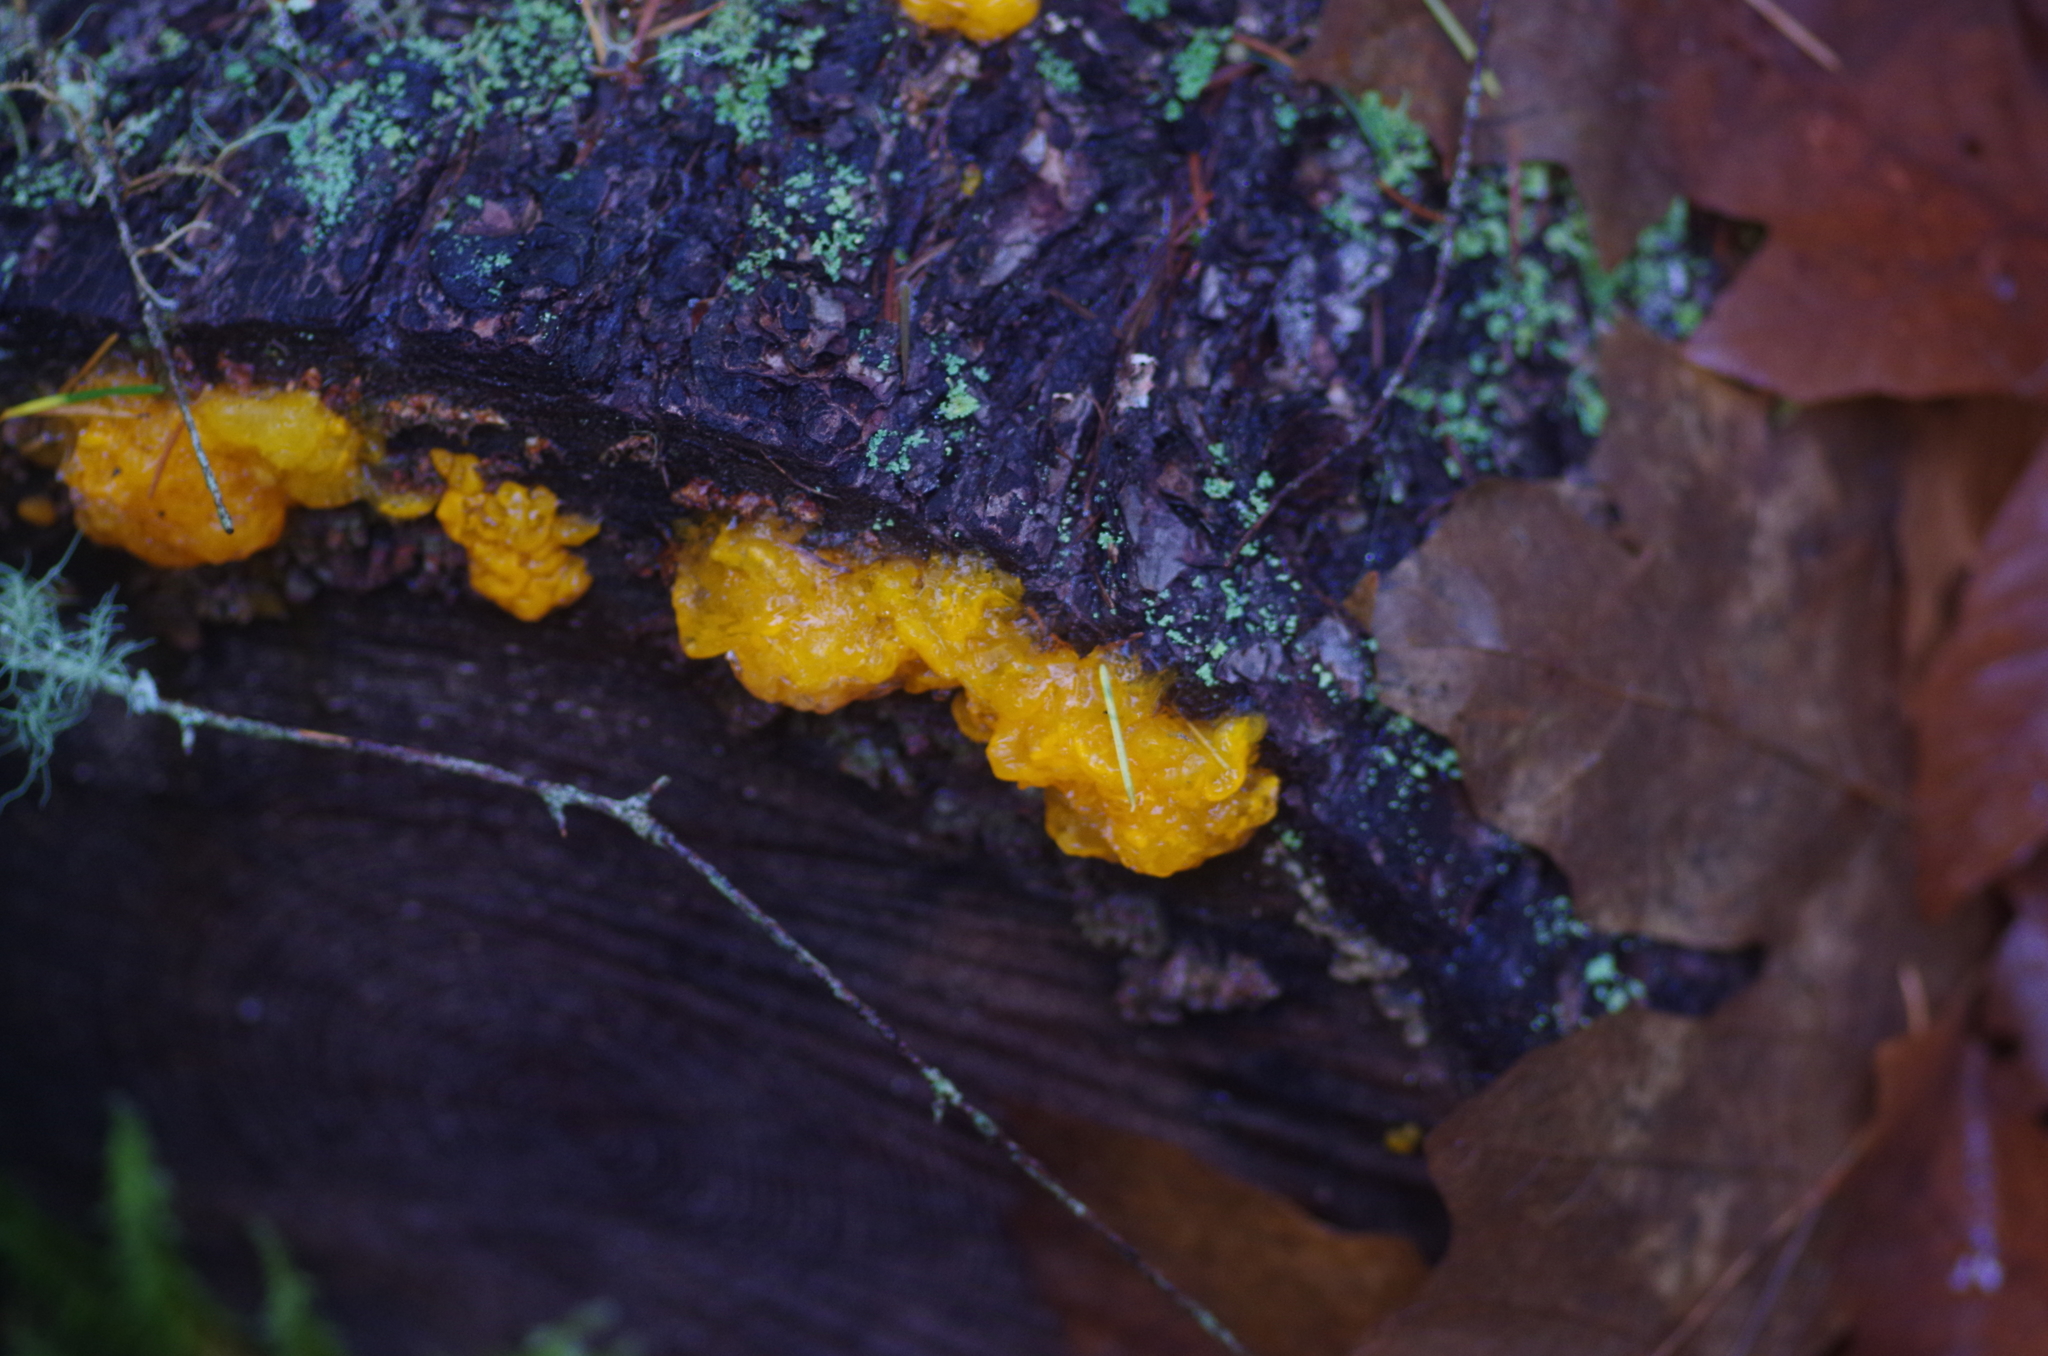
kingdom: Fungi
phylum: Basidiomycota
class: Dacrymycetes
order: Dacrymycetales
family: Dacrymycetaceae
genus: Dacrymyces
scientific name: Dacrymyces chrysospermus
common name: Orange jelly spot
